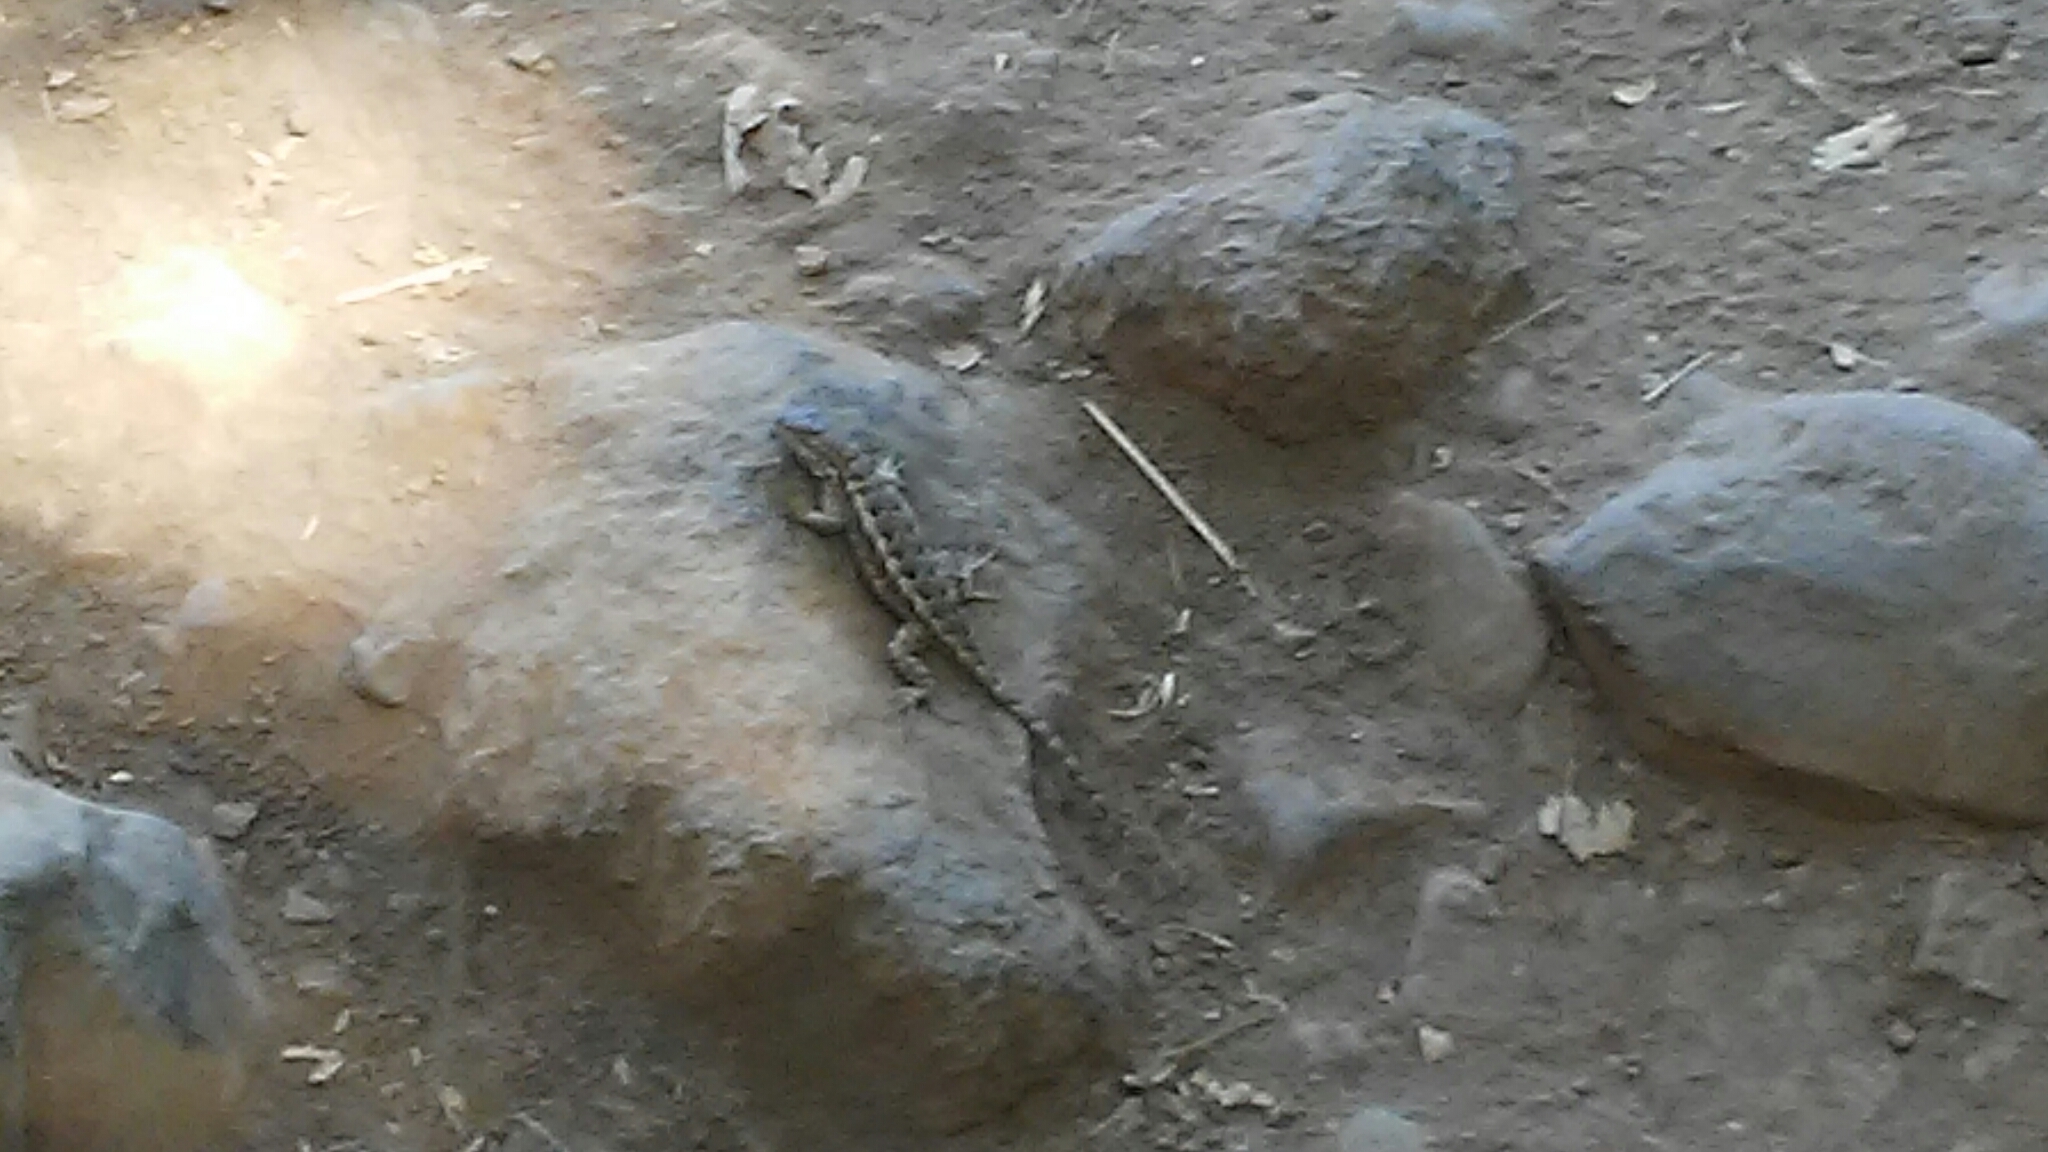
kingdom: Animalia
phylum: Chordata
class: Squamata
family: Phrynosomatidae
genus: Sceloporus
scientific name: Sceloporus occidentalis
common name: Western fence lizard
